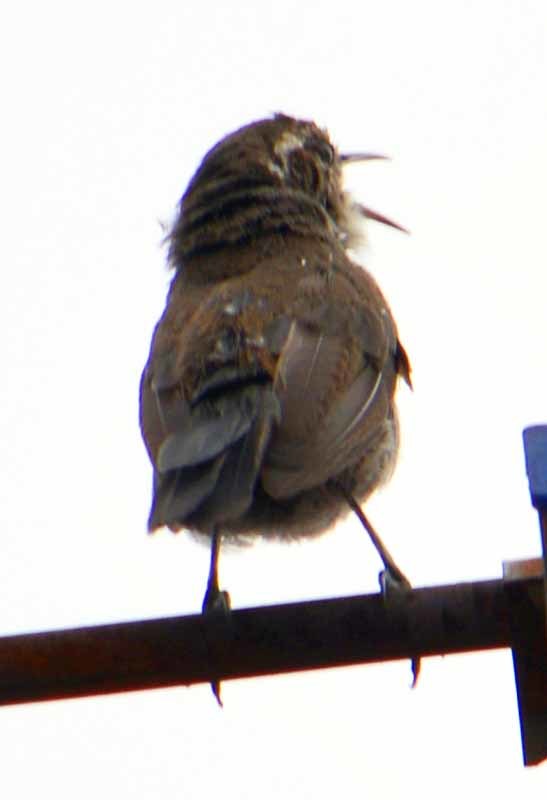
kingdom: Animalia
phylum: Chordata
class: Aves
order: Passeriformes
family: Troglodytidae
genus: Thryomanes
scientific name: Thryomanes bewickii
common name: Bewick's wren
